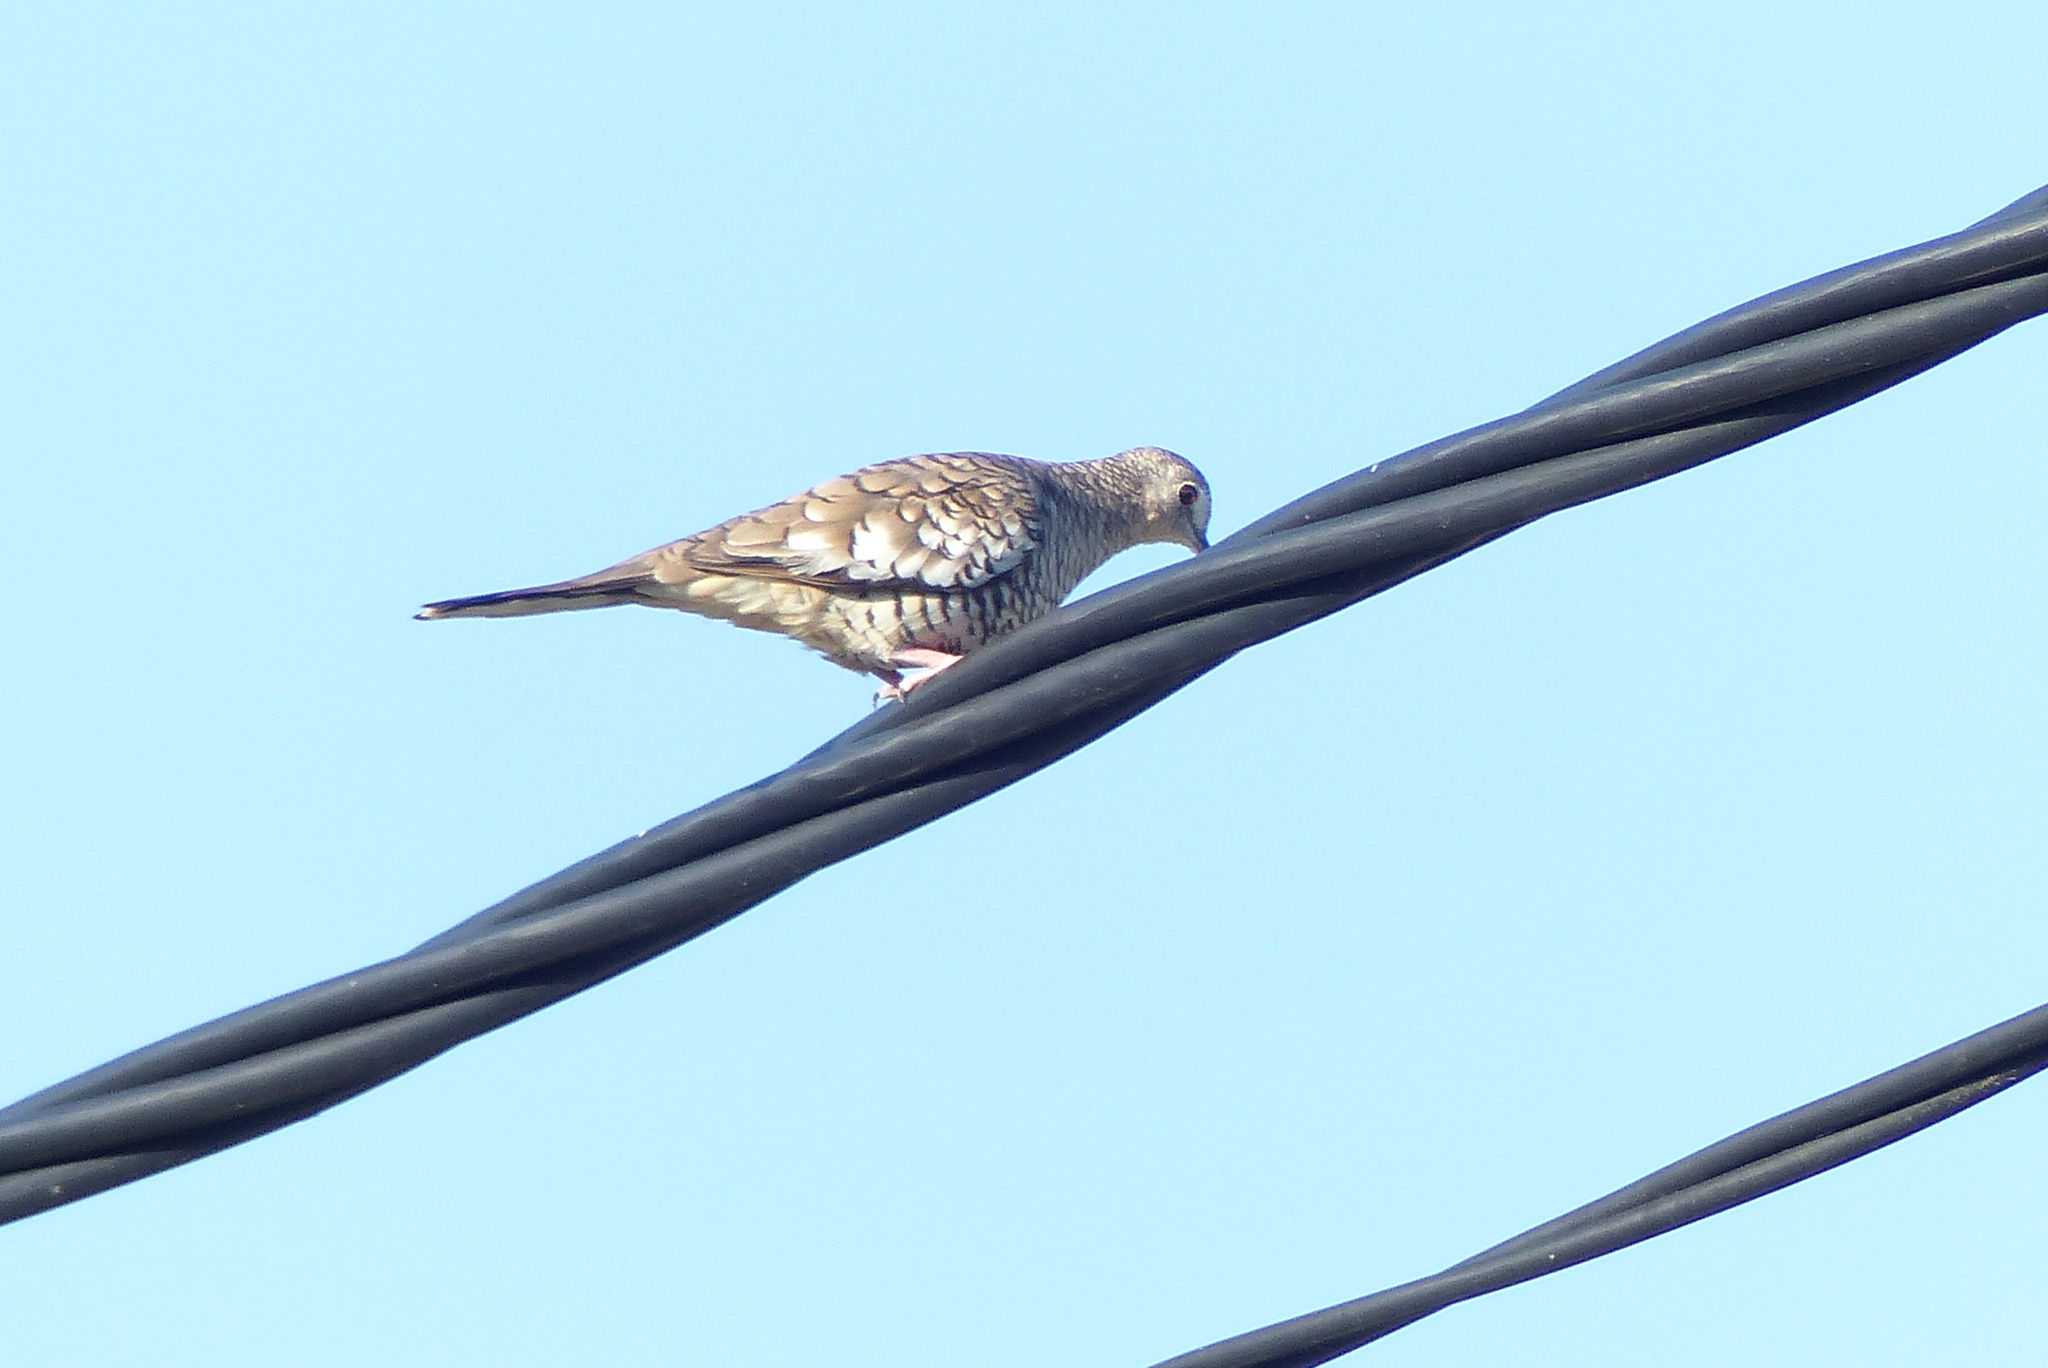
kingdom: Animalia
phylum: Chordata
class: Aves
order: Columbiformes
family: Columbidae
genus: Columbina
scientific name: Columbina squammata
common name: Scaled dove
